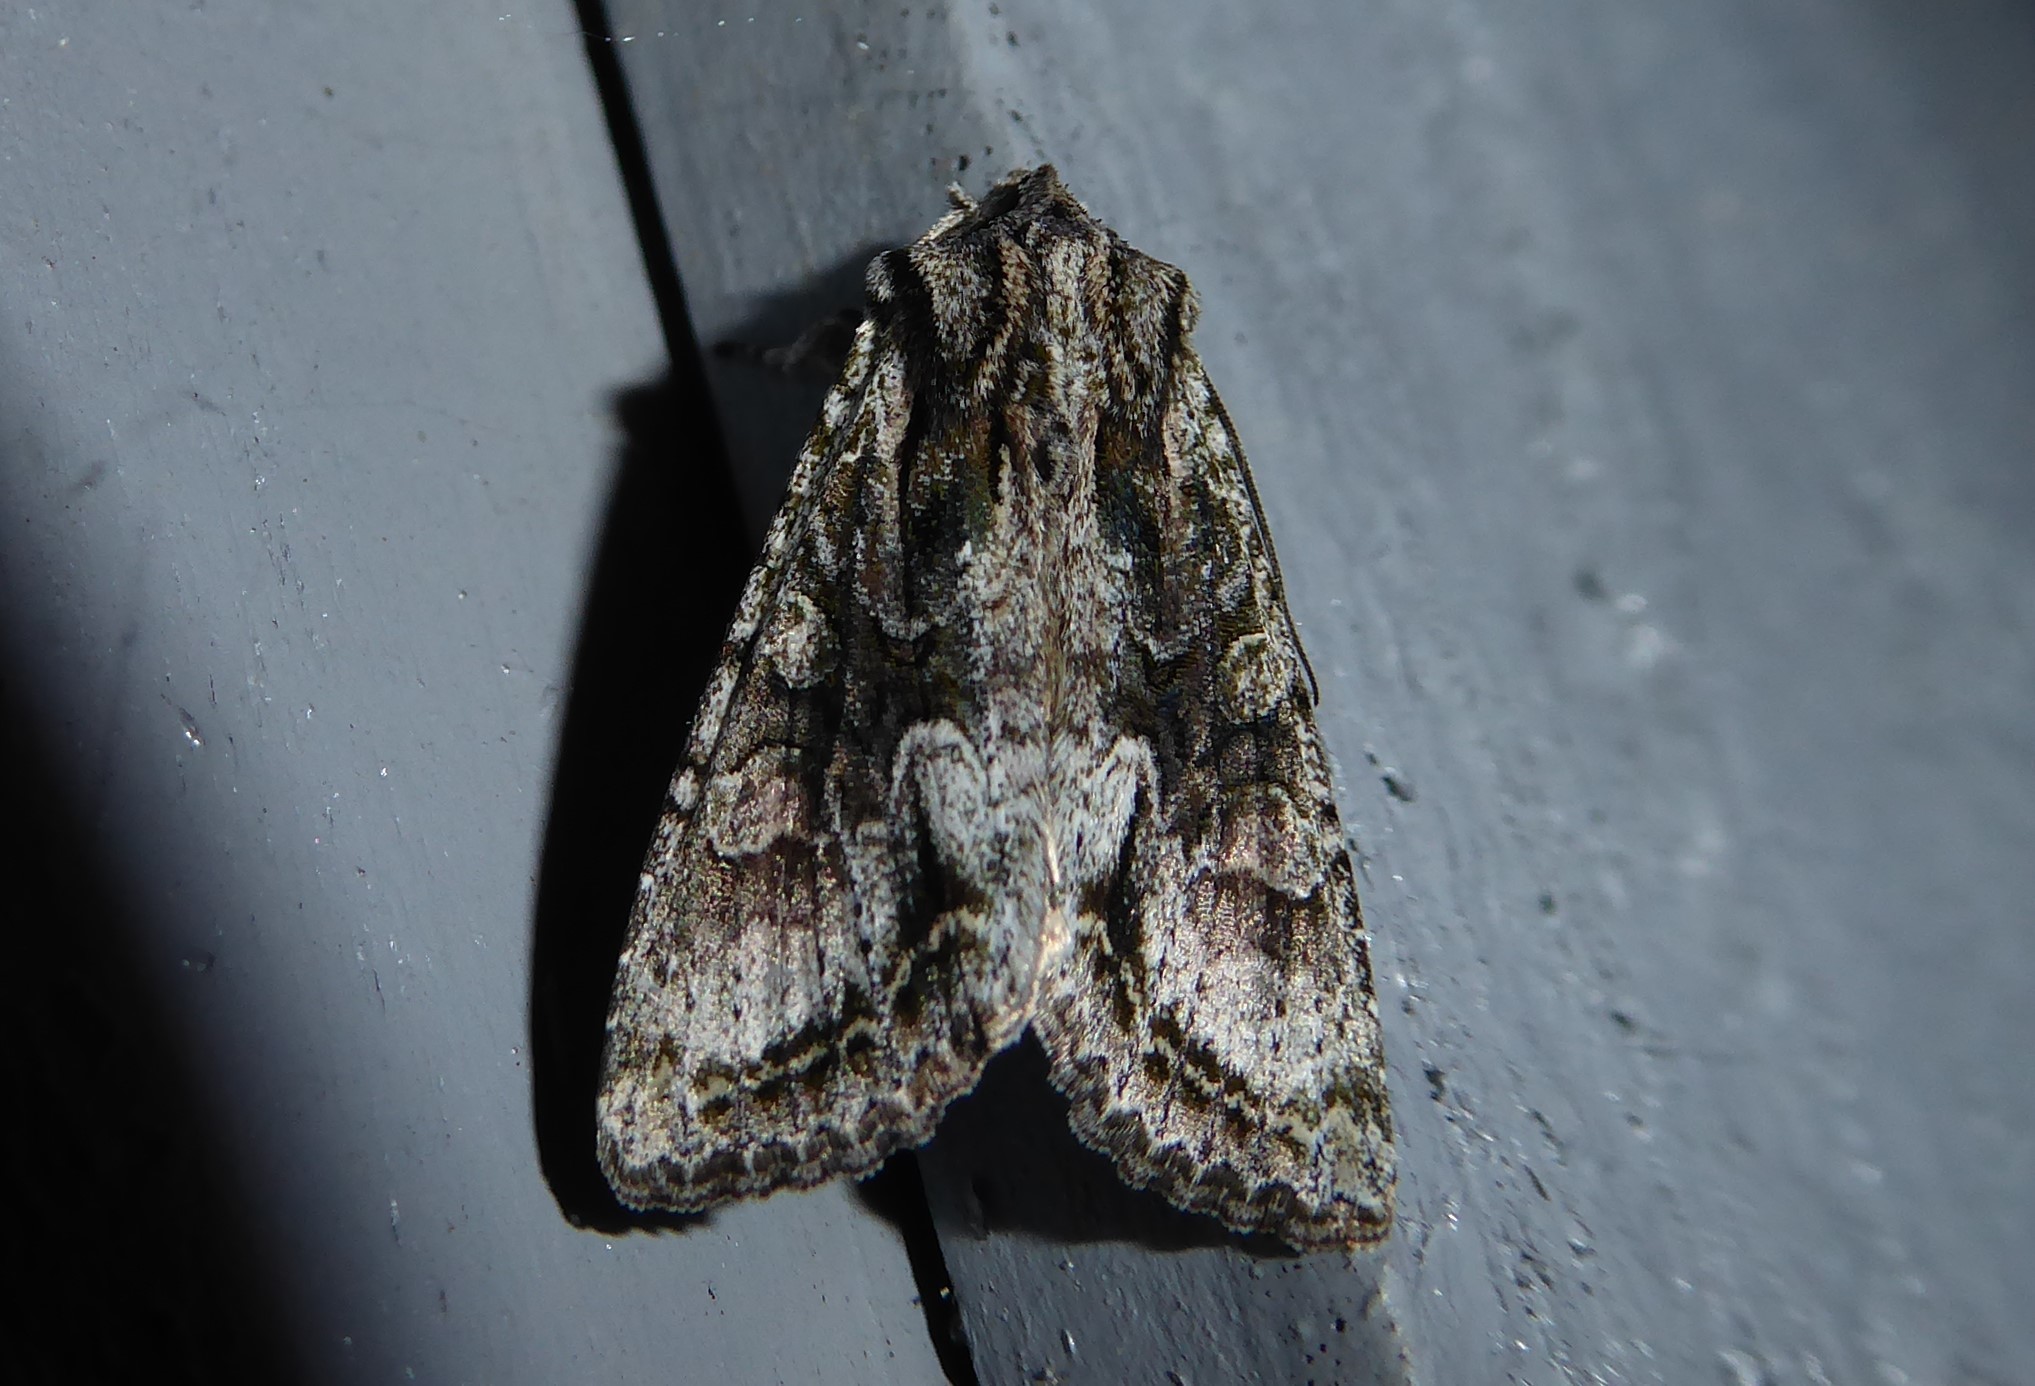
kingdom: Animalia
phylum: Arthropoda
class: Insecta
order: Lepidoptera
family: Noctuidae
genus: Ichneutica
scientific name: Ichneutica mutans
